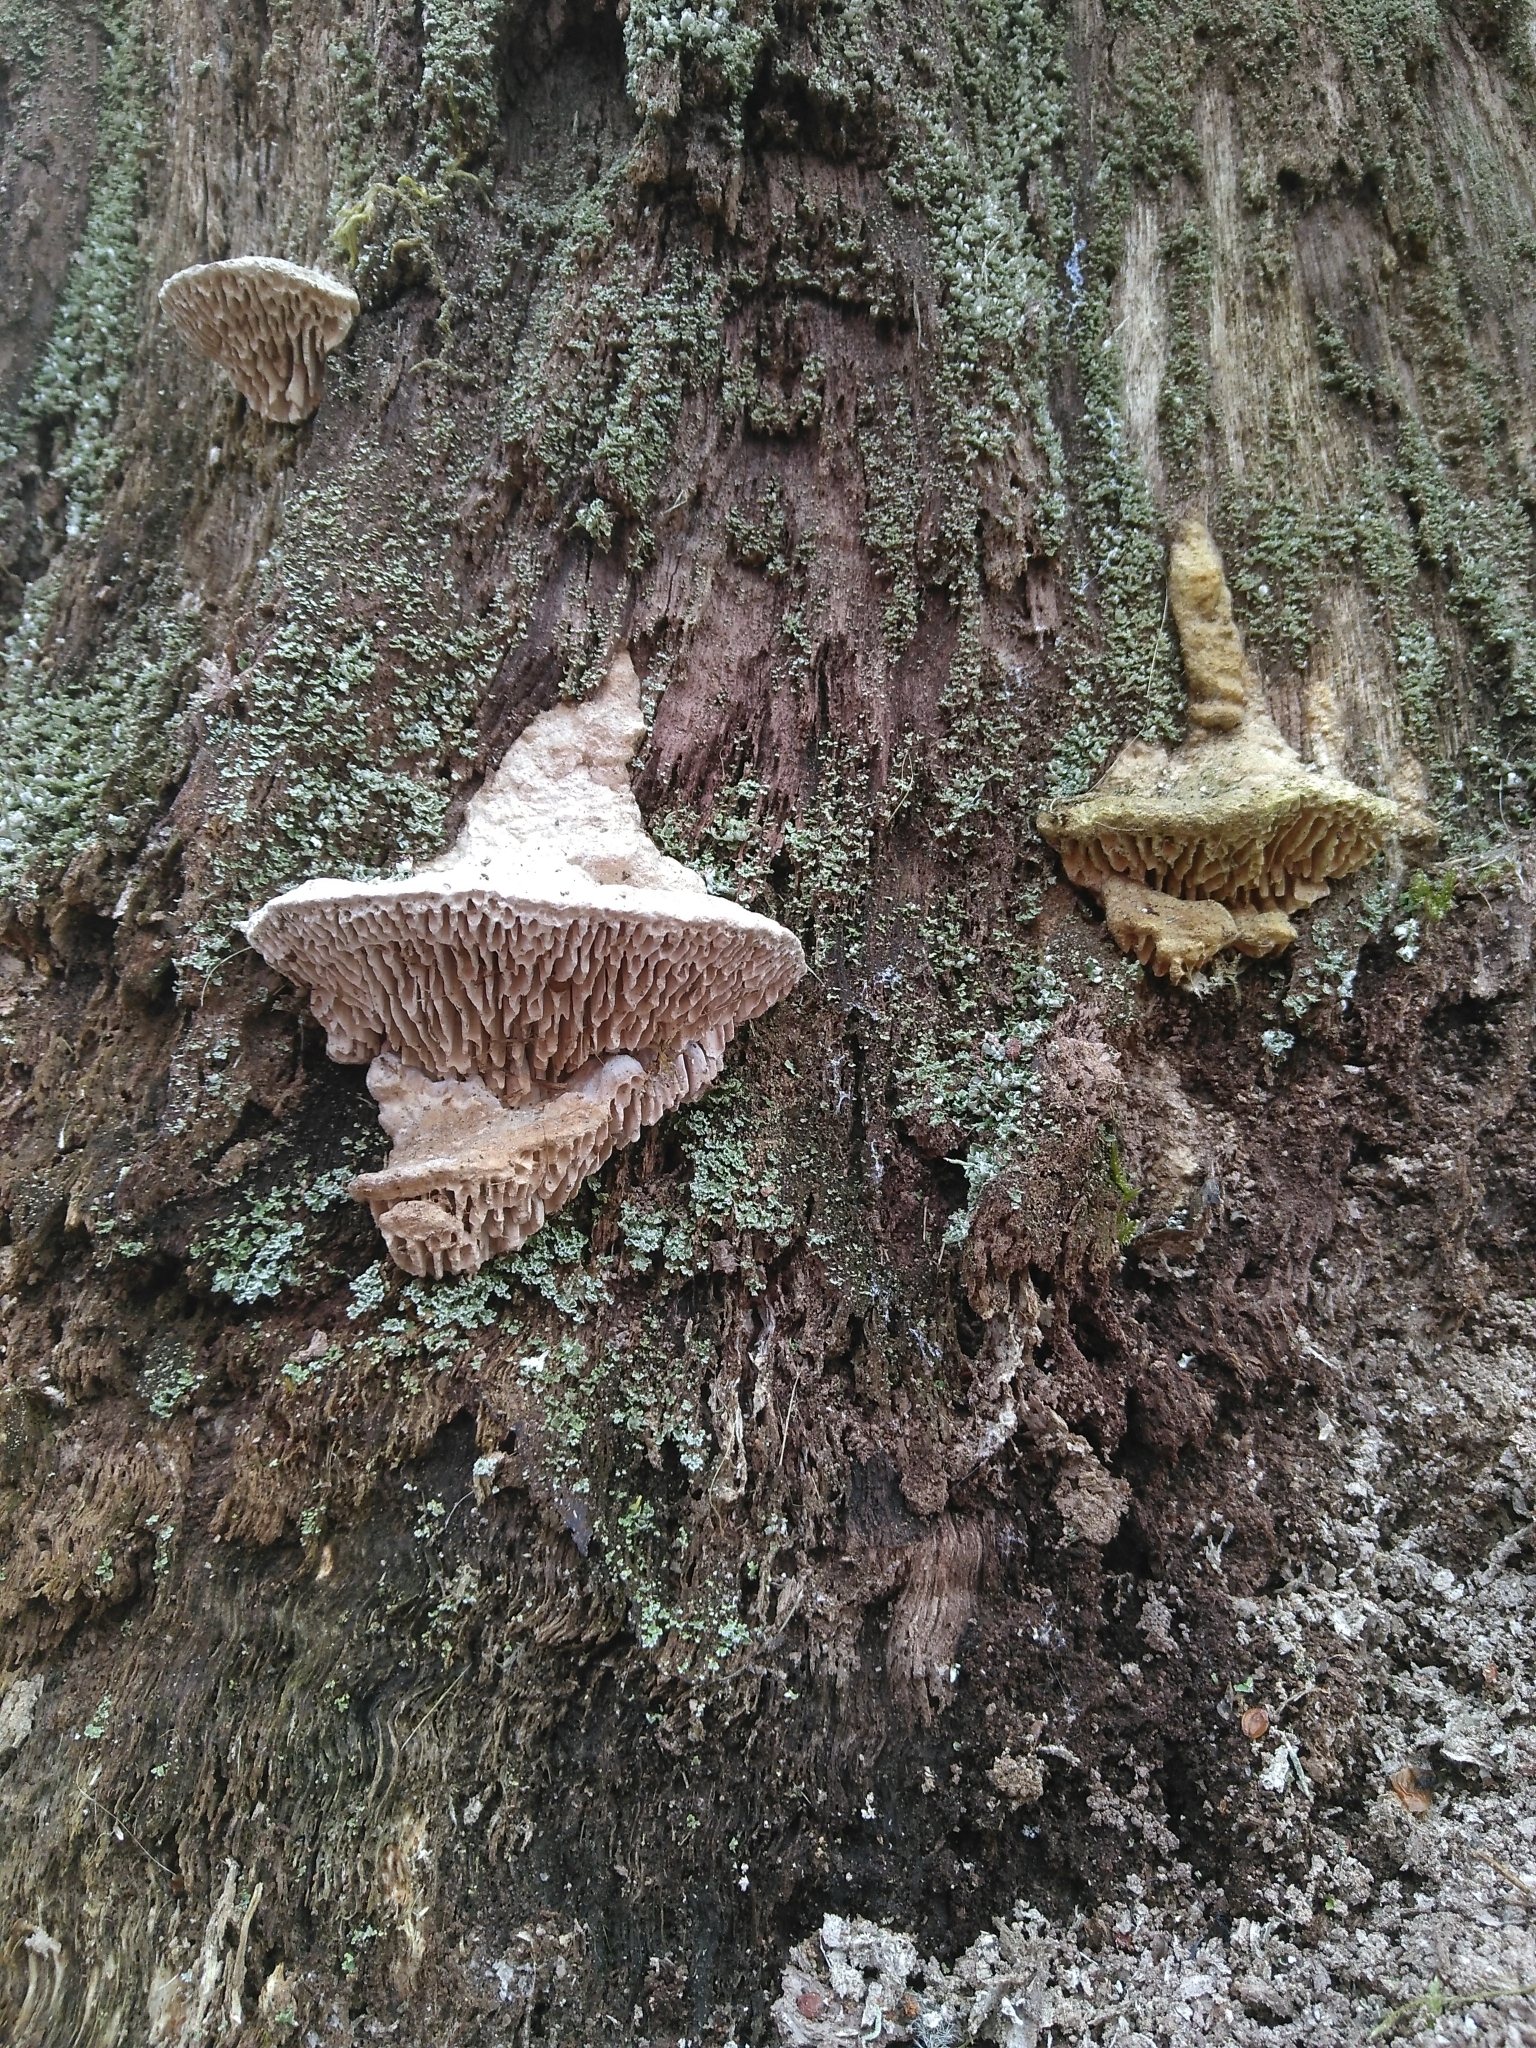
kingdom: Fungi
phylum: Basidiomycota
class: Agaricomycetes
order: Polyporales
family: Fomitopsidaceae
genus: Fomitopsis
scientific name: Fomitopsis
